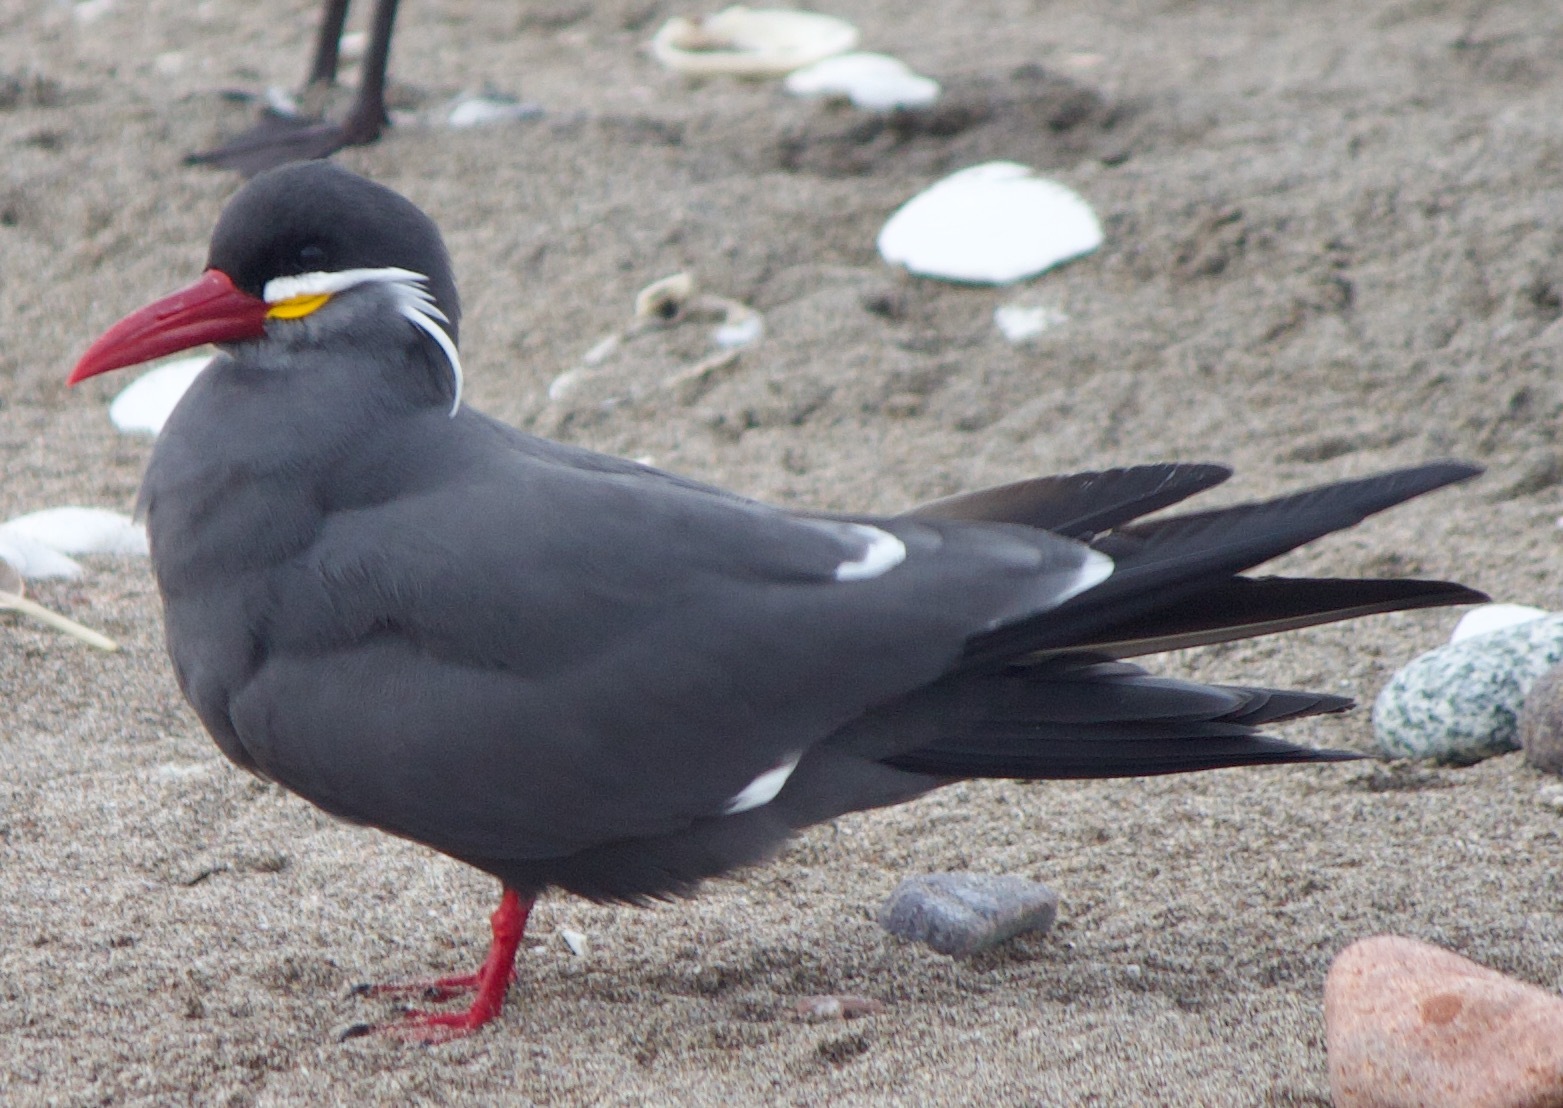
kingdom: Animalia
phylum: Chordata
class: Aves
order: Charadriiformes
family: Laridae
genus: Larosterna
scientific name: Larosterna inca
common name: Inca tern
